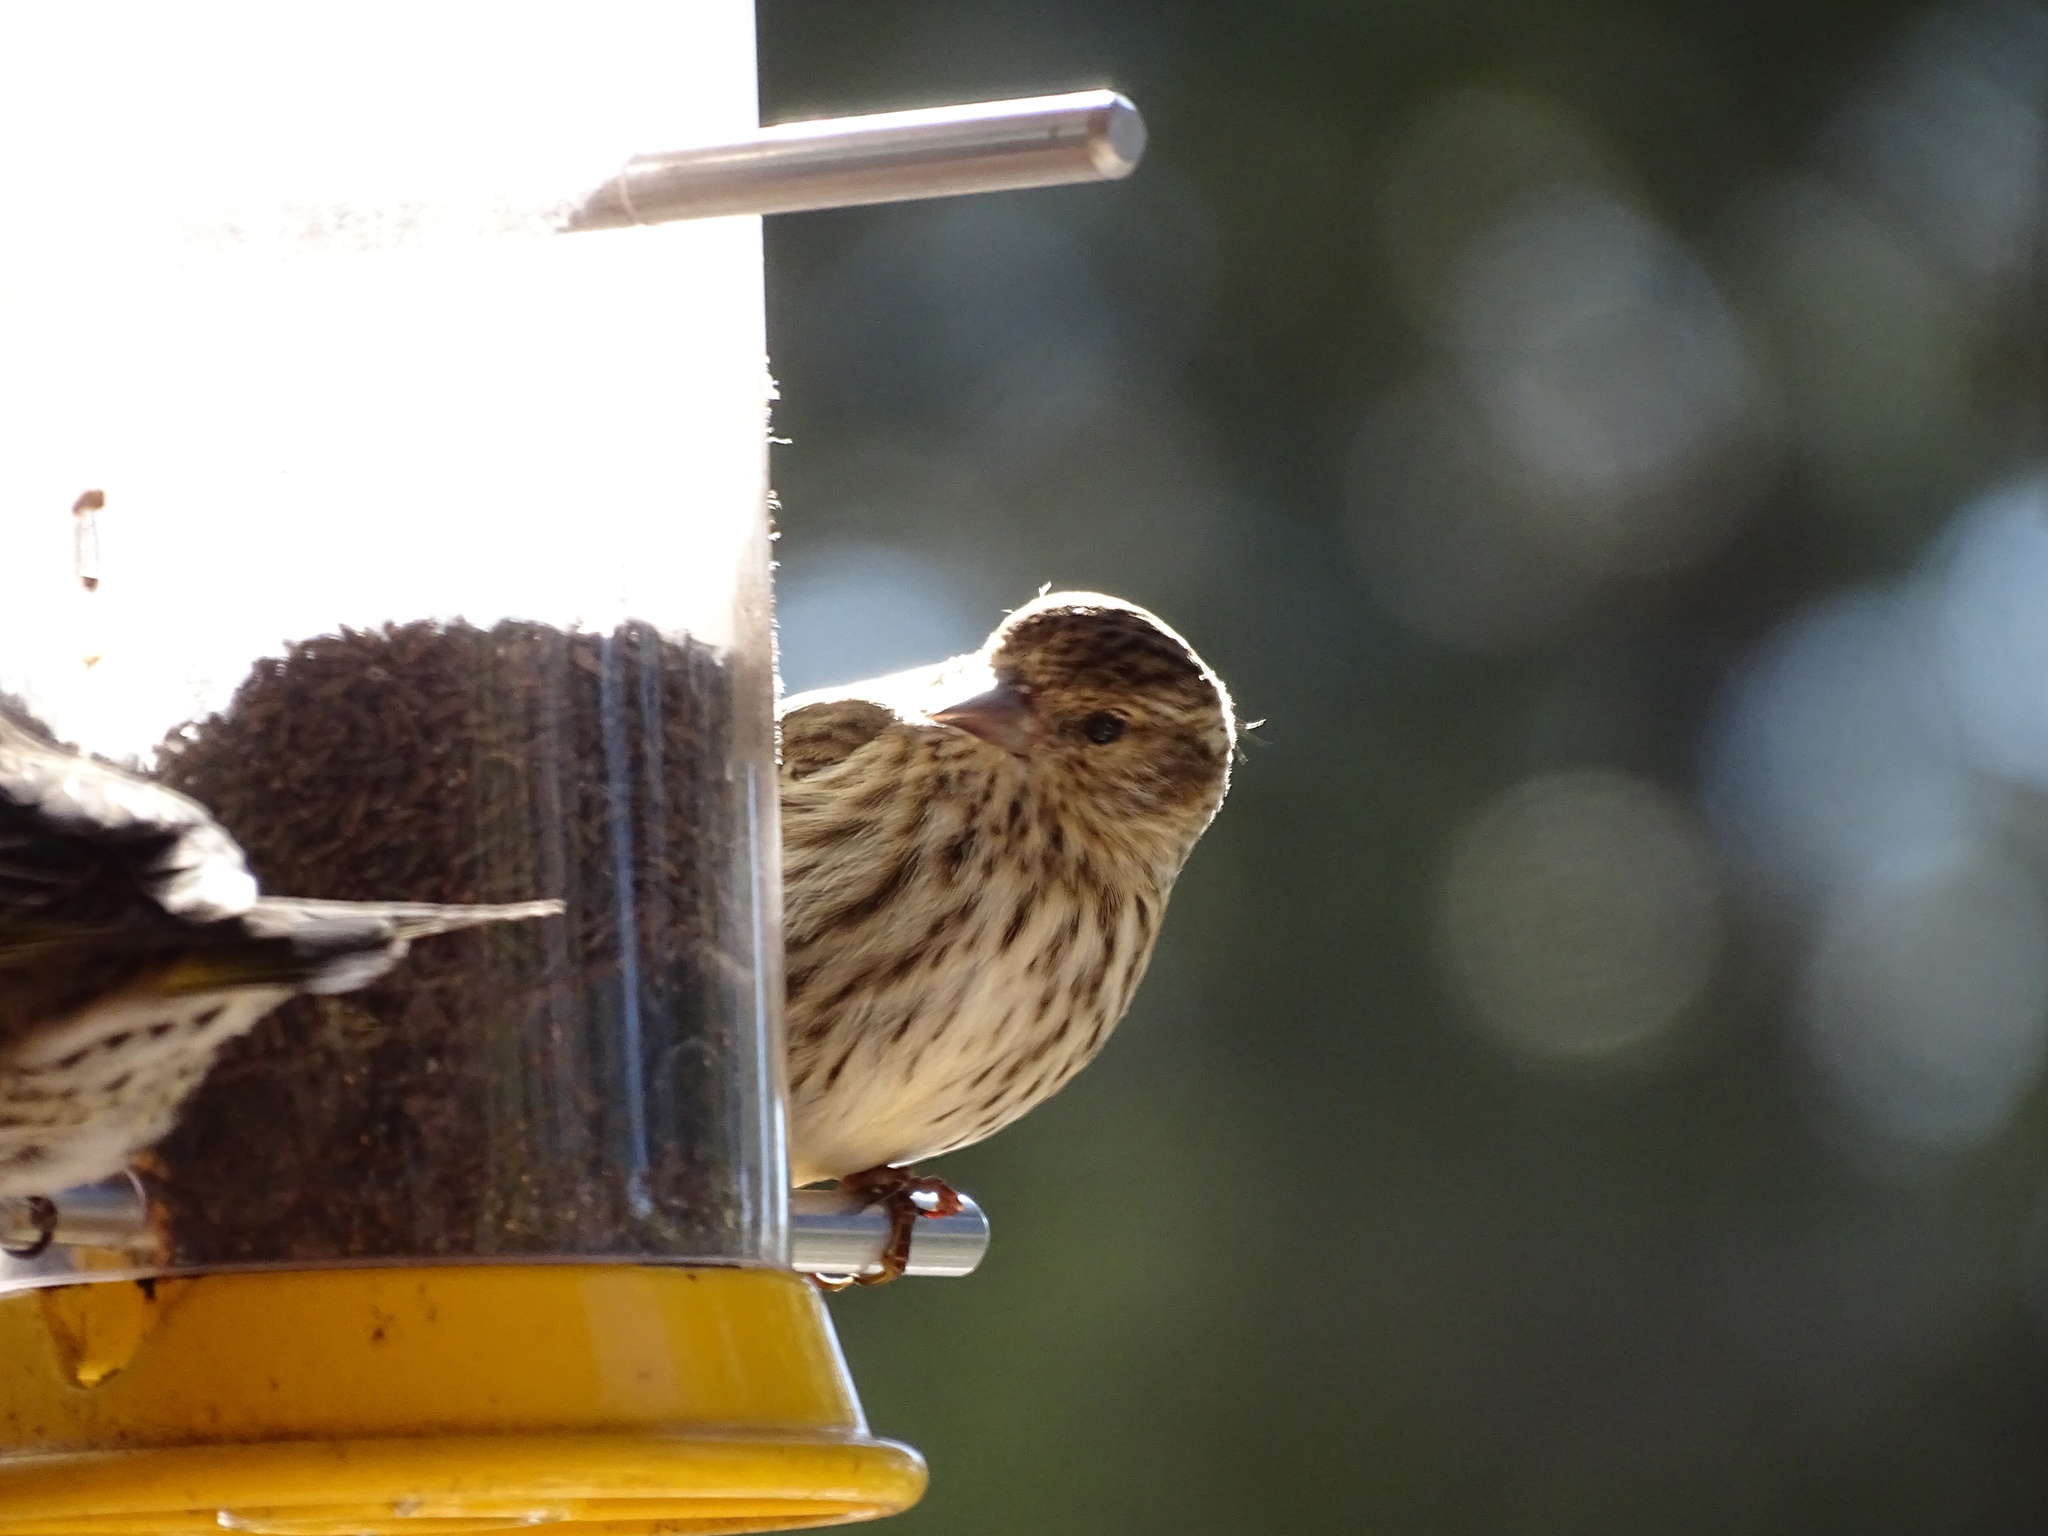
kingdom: Animalia
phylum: Chordata
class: Aves
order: Passeriformes
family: Fringillidae
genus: Spinus
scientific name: Spinus pinus
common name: Pine siskin
